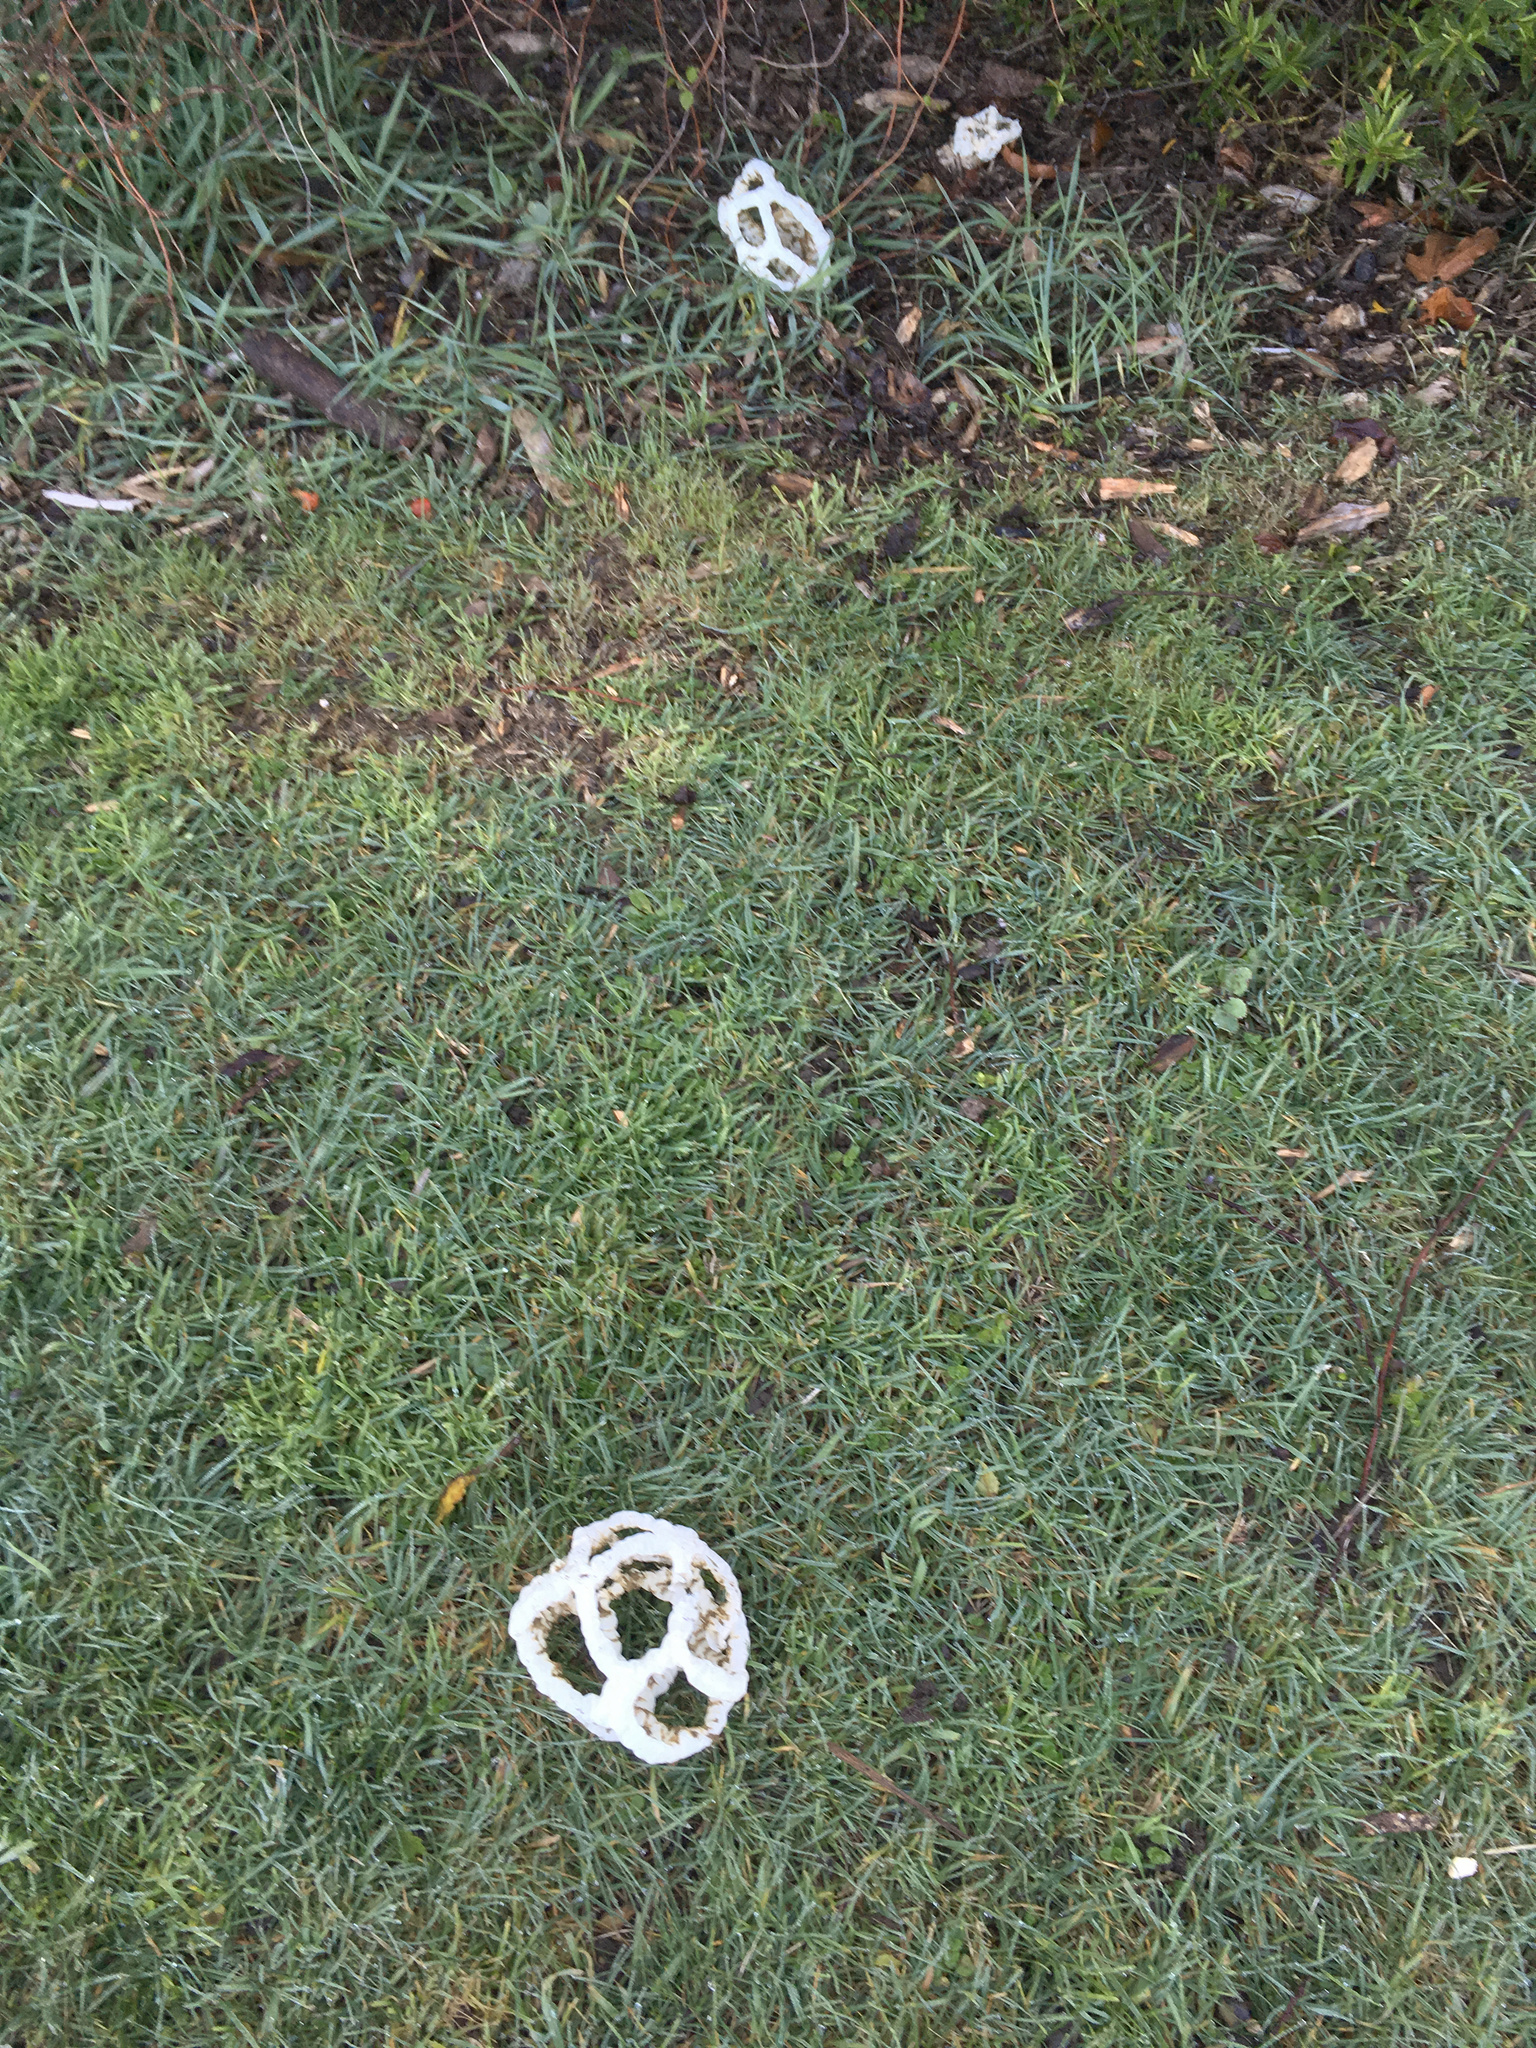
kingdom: Fungi
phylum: Basidiomycota
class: Agaricomycetes
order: Phallales
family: Phallaceae
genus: Ileodictyon
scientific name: Ileodictyon cibarium
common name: Basket fungus
